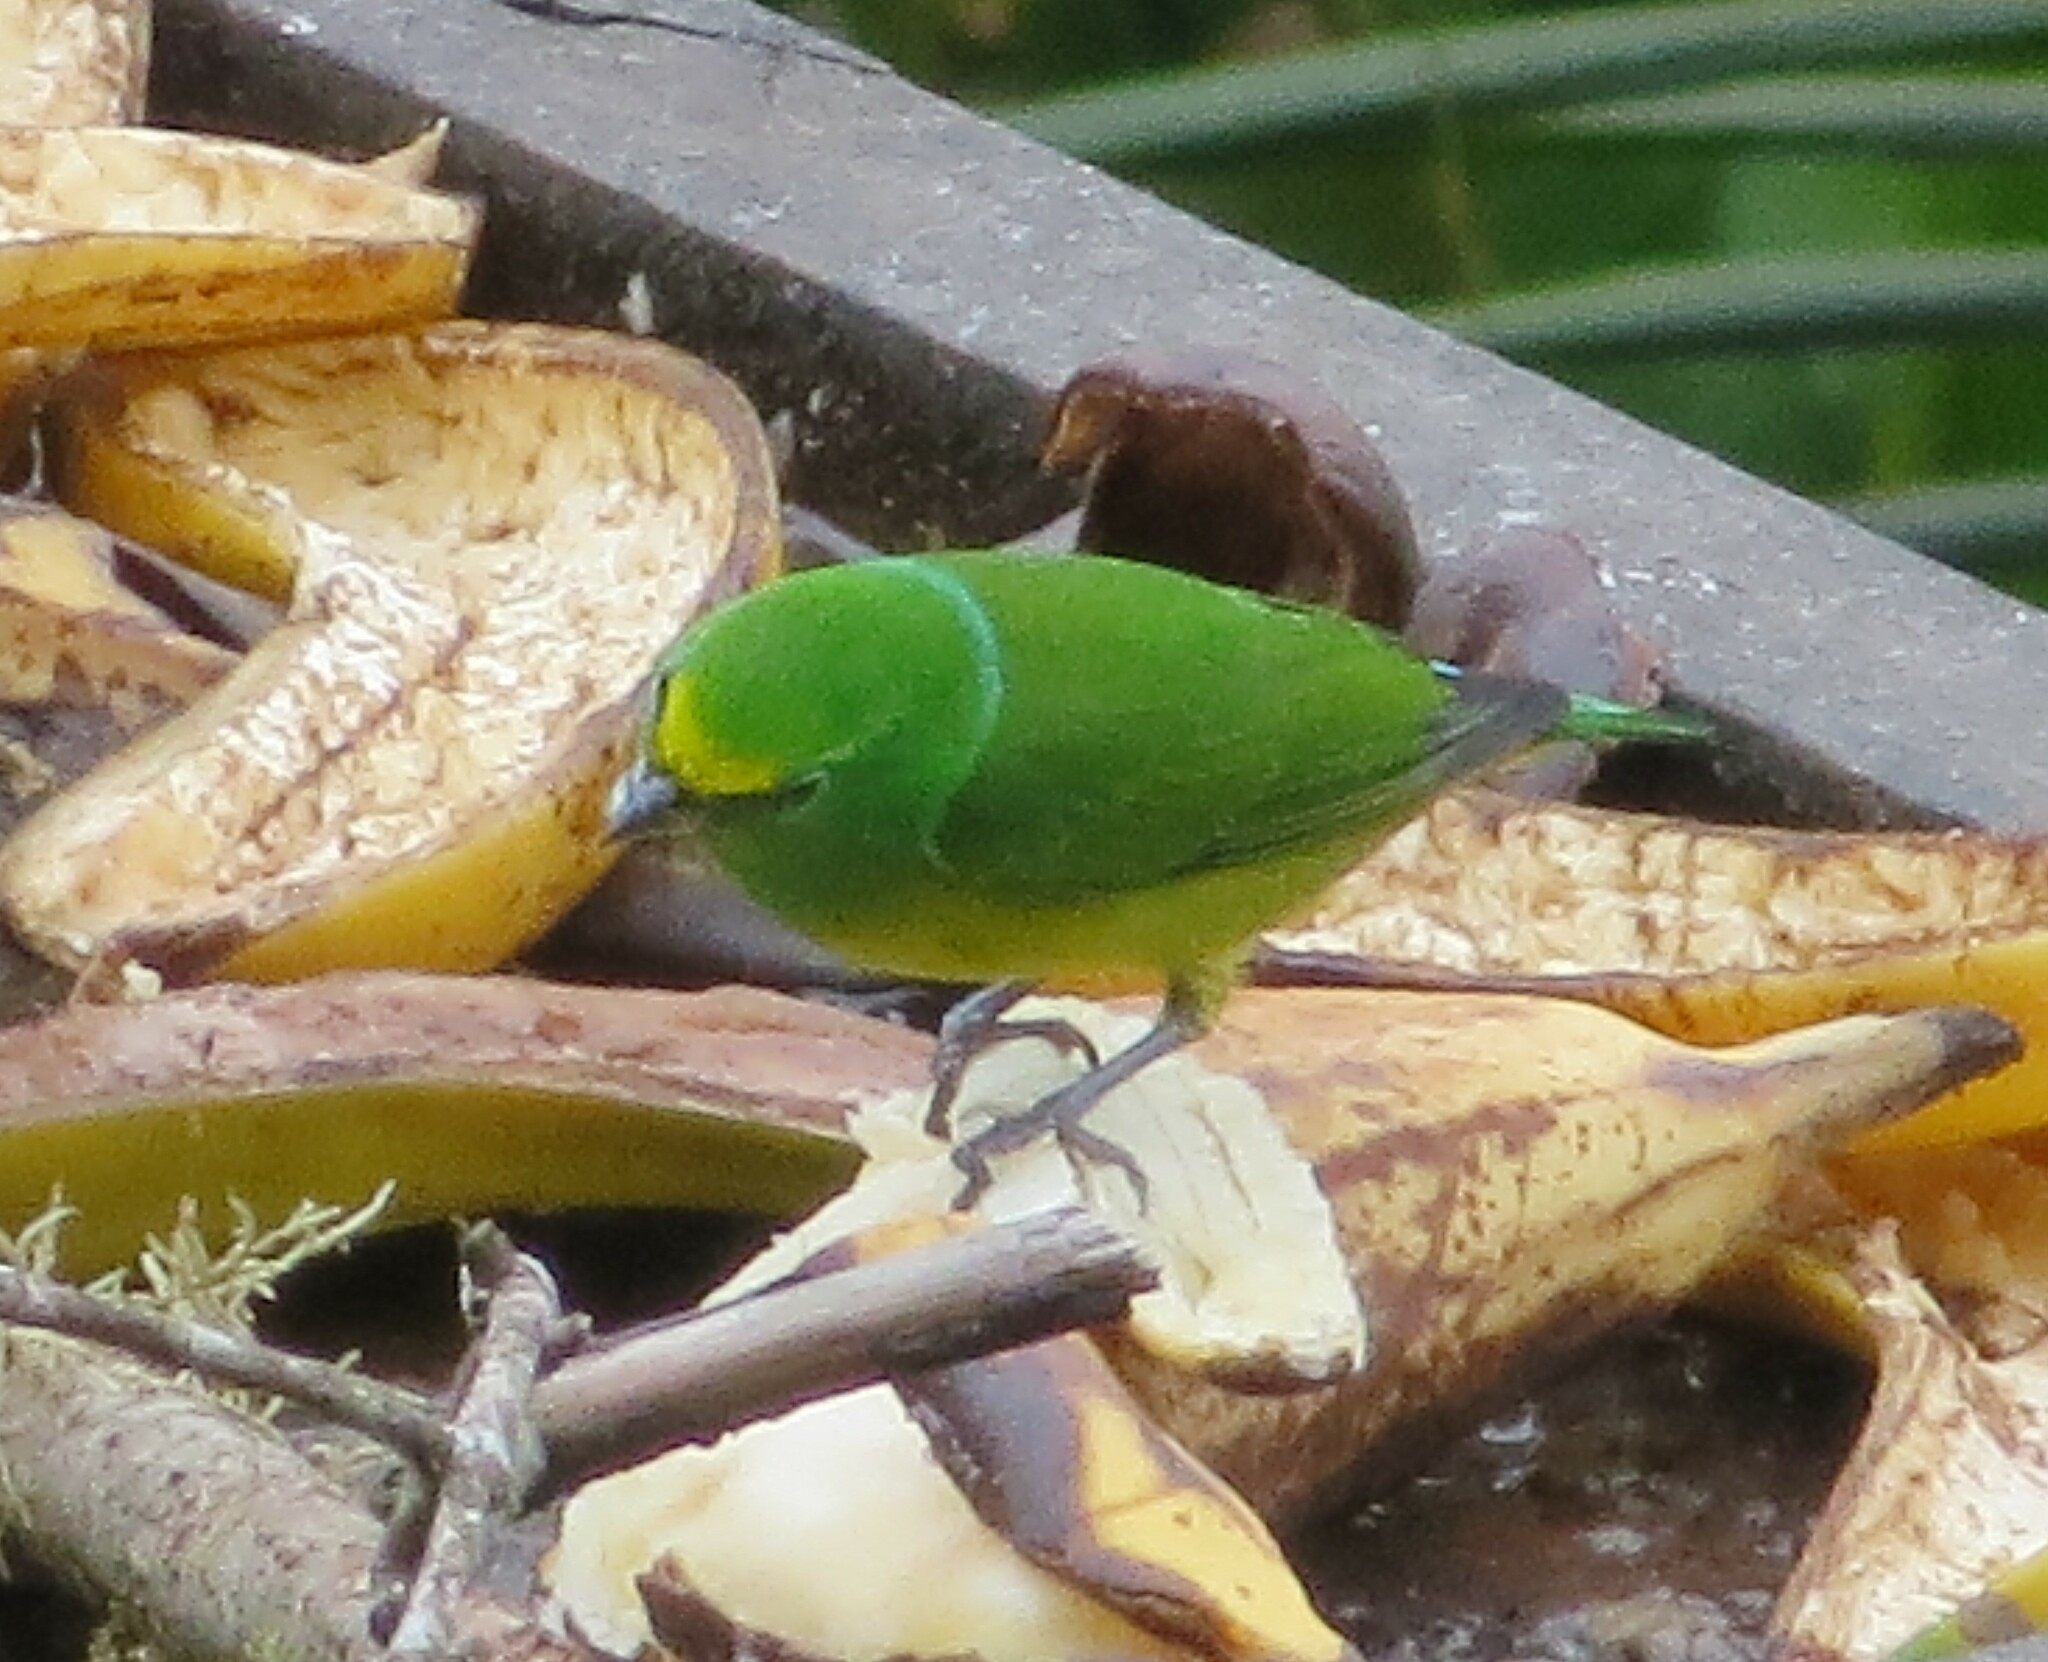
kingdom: Animalia
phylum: Chordata
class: Aves
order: Passeriformes
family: Fringillidae
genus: Chlorophonia
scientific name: Chlorophonia cyanea
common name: Blue-naped chlorophonia
